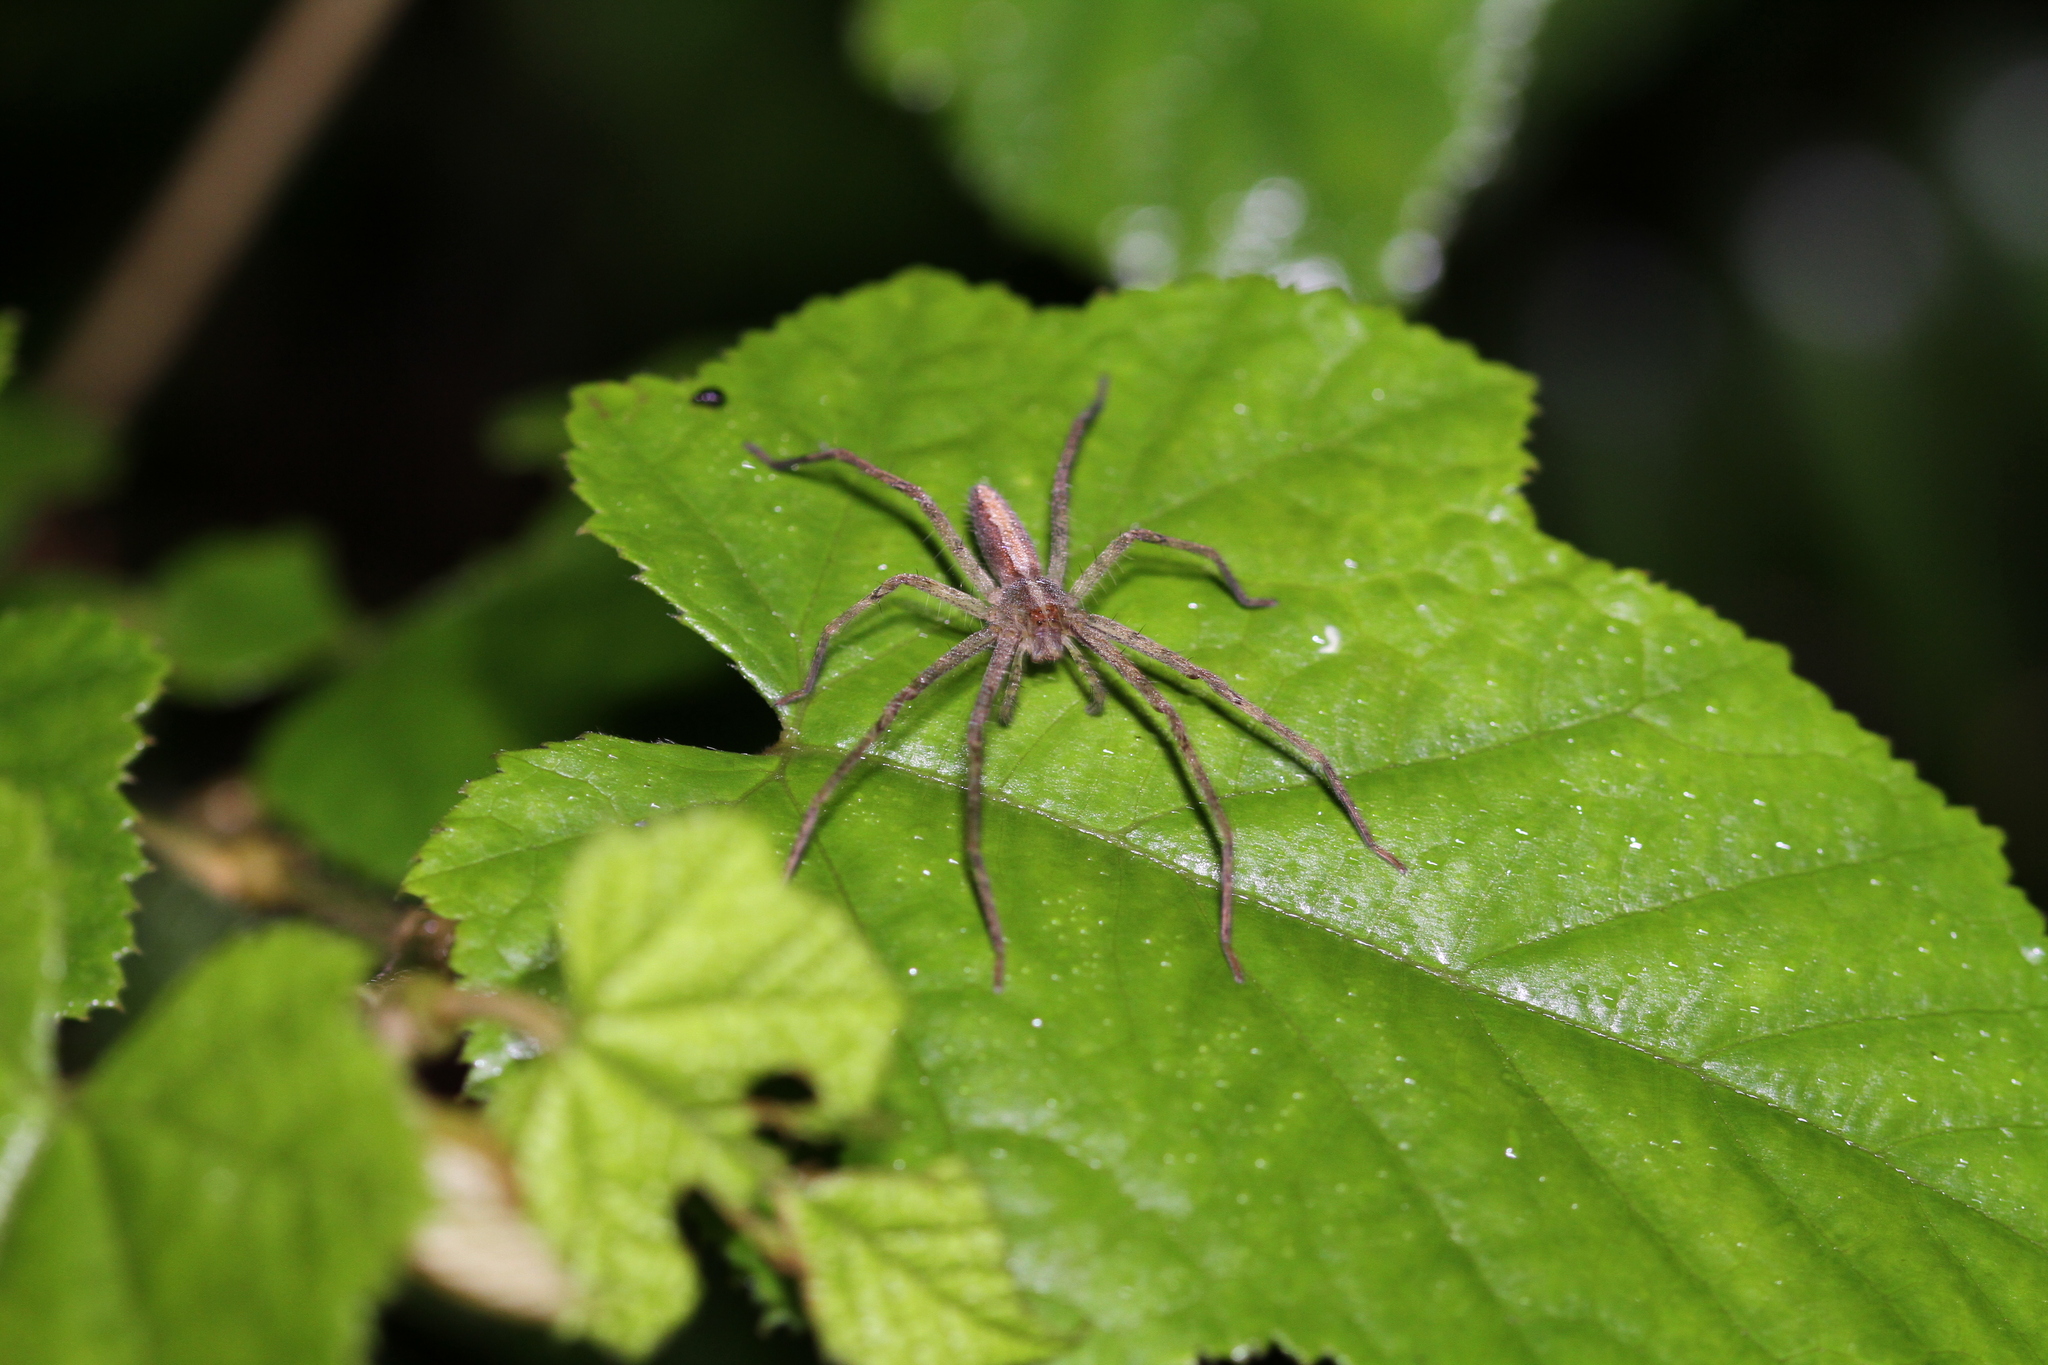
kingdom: Animalia
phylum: Arthropoda
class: Arachnida
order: Araneae
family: Sparassidae
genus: Heteropoda
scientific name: Heteropoda ocyalina
